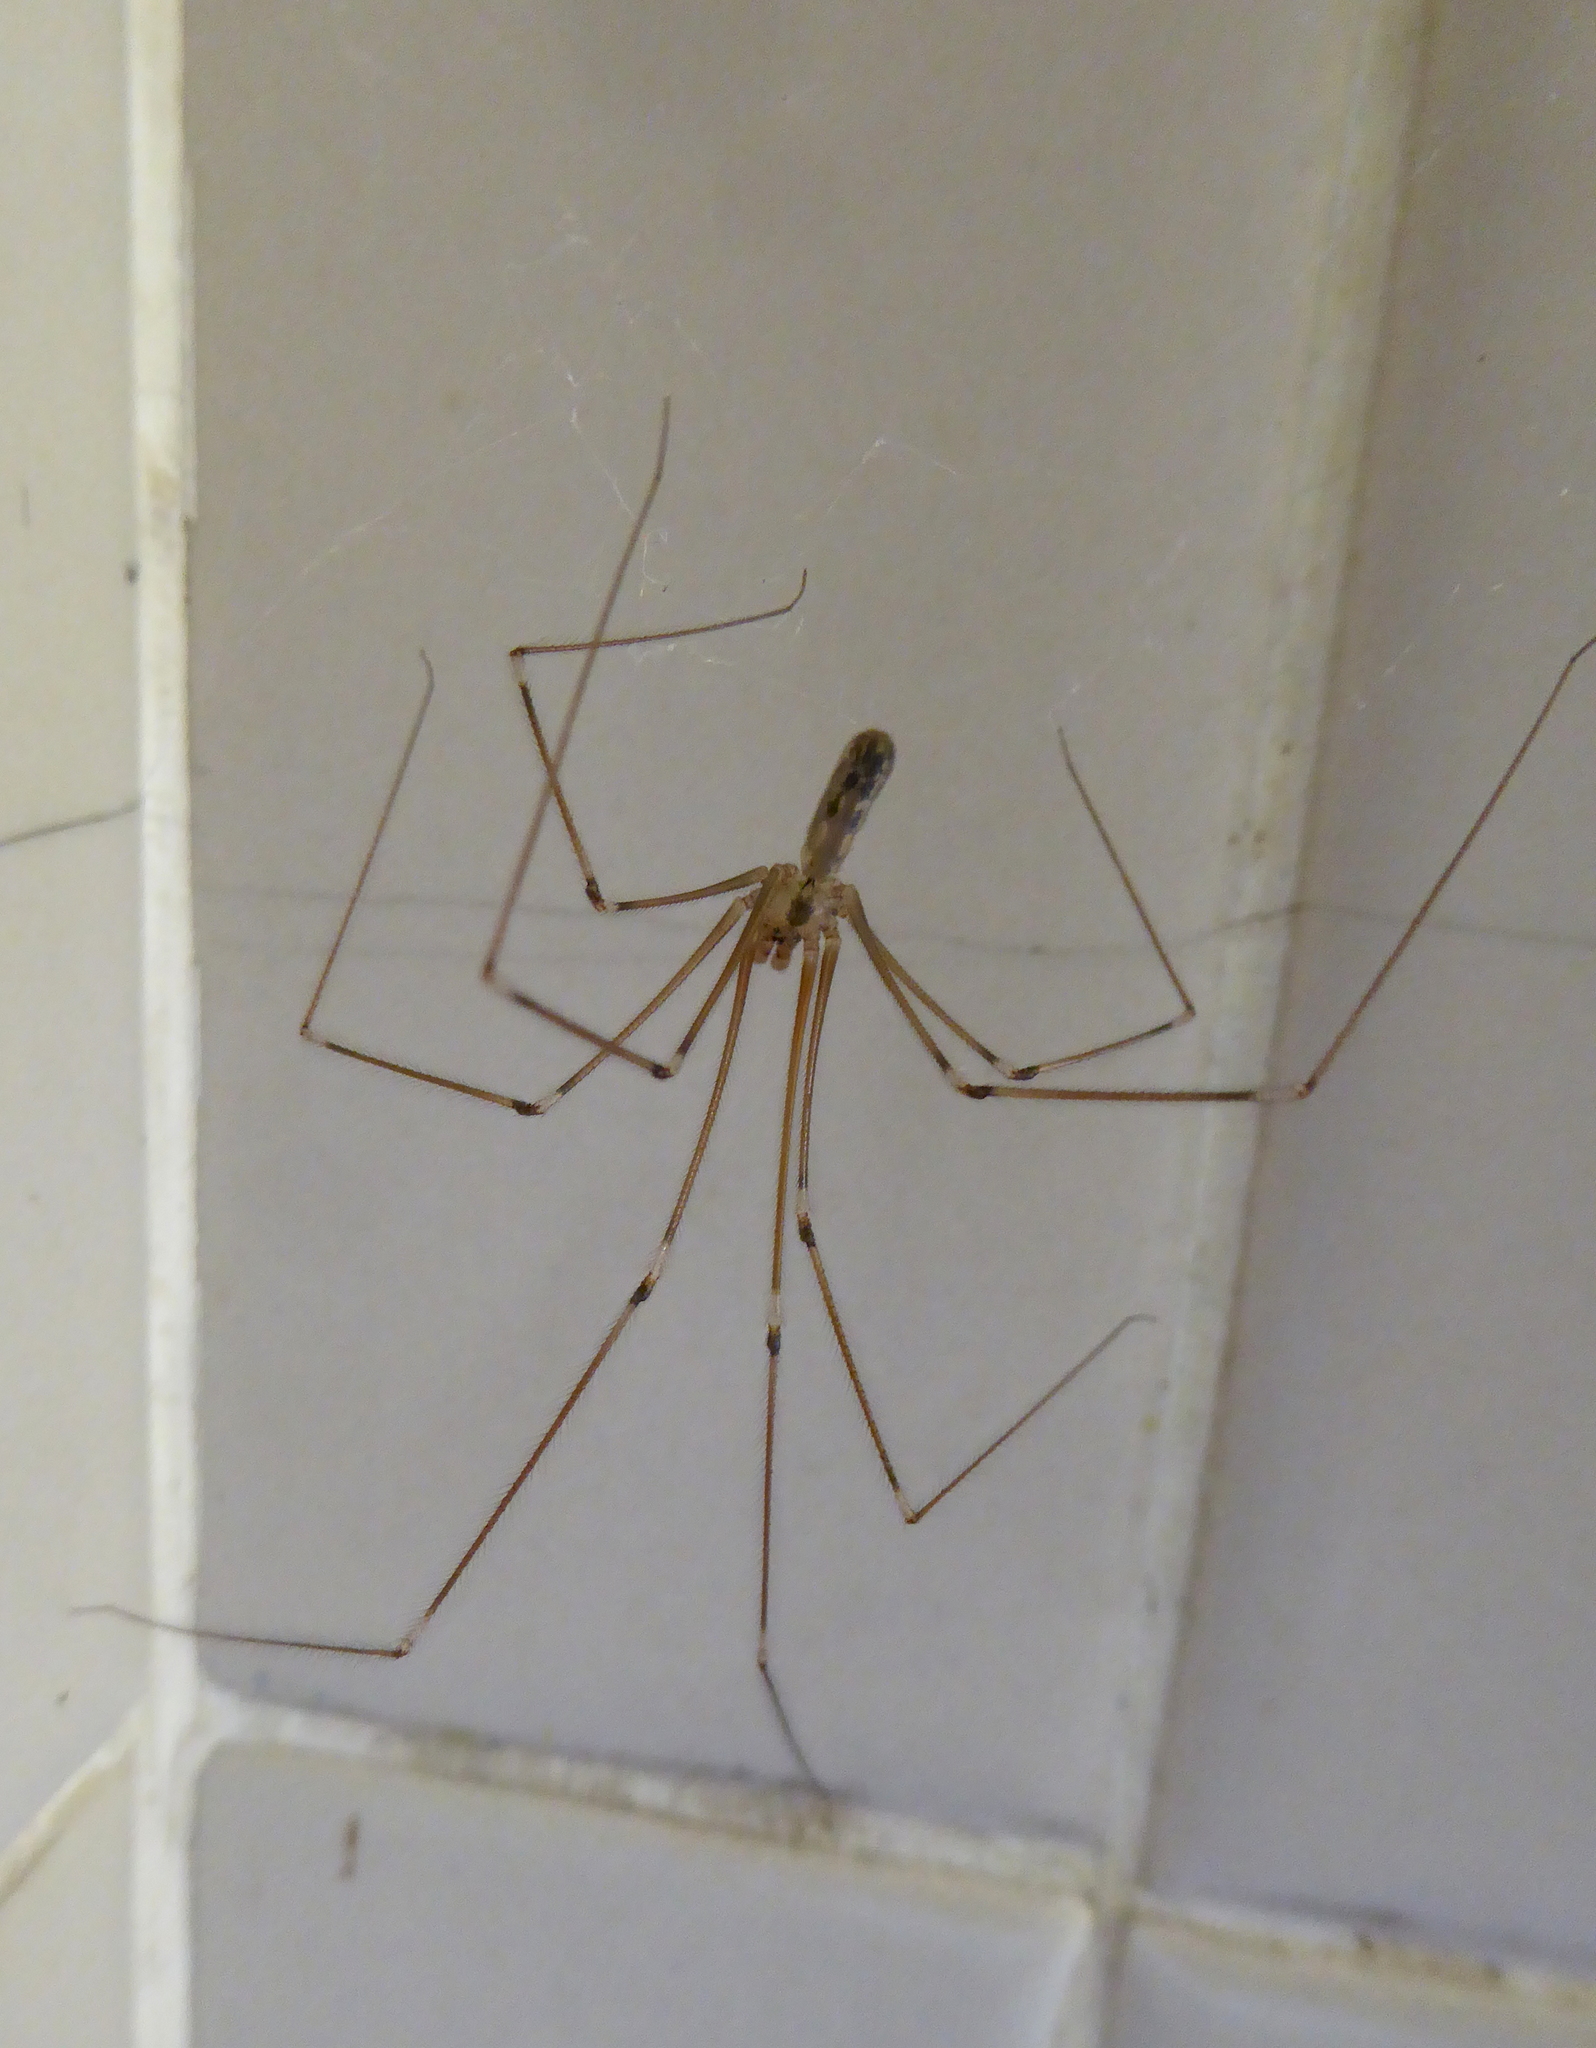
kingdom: Animalia
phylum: Arthropoda
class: Arachnida
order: Araneae
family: Pholcidae
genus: Pholcus
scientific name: Pholcus phalangioides
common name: Longbodied cellar spider
